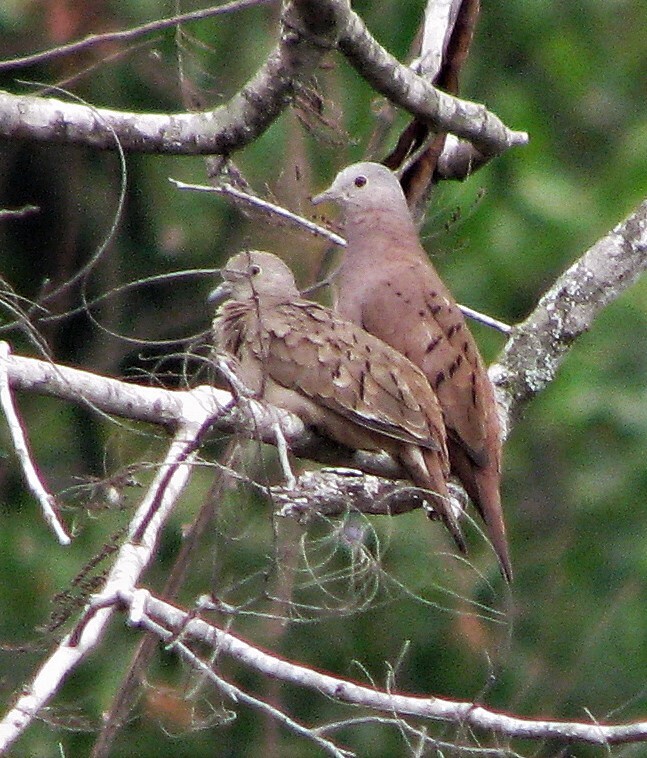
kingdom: Animalia
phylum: Chordata
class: Aves
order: Columbiformes
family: Columbidae
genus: Columbina
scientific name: Columbina talpacoti
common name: Ruddy ground dove
